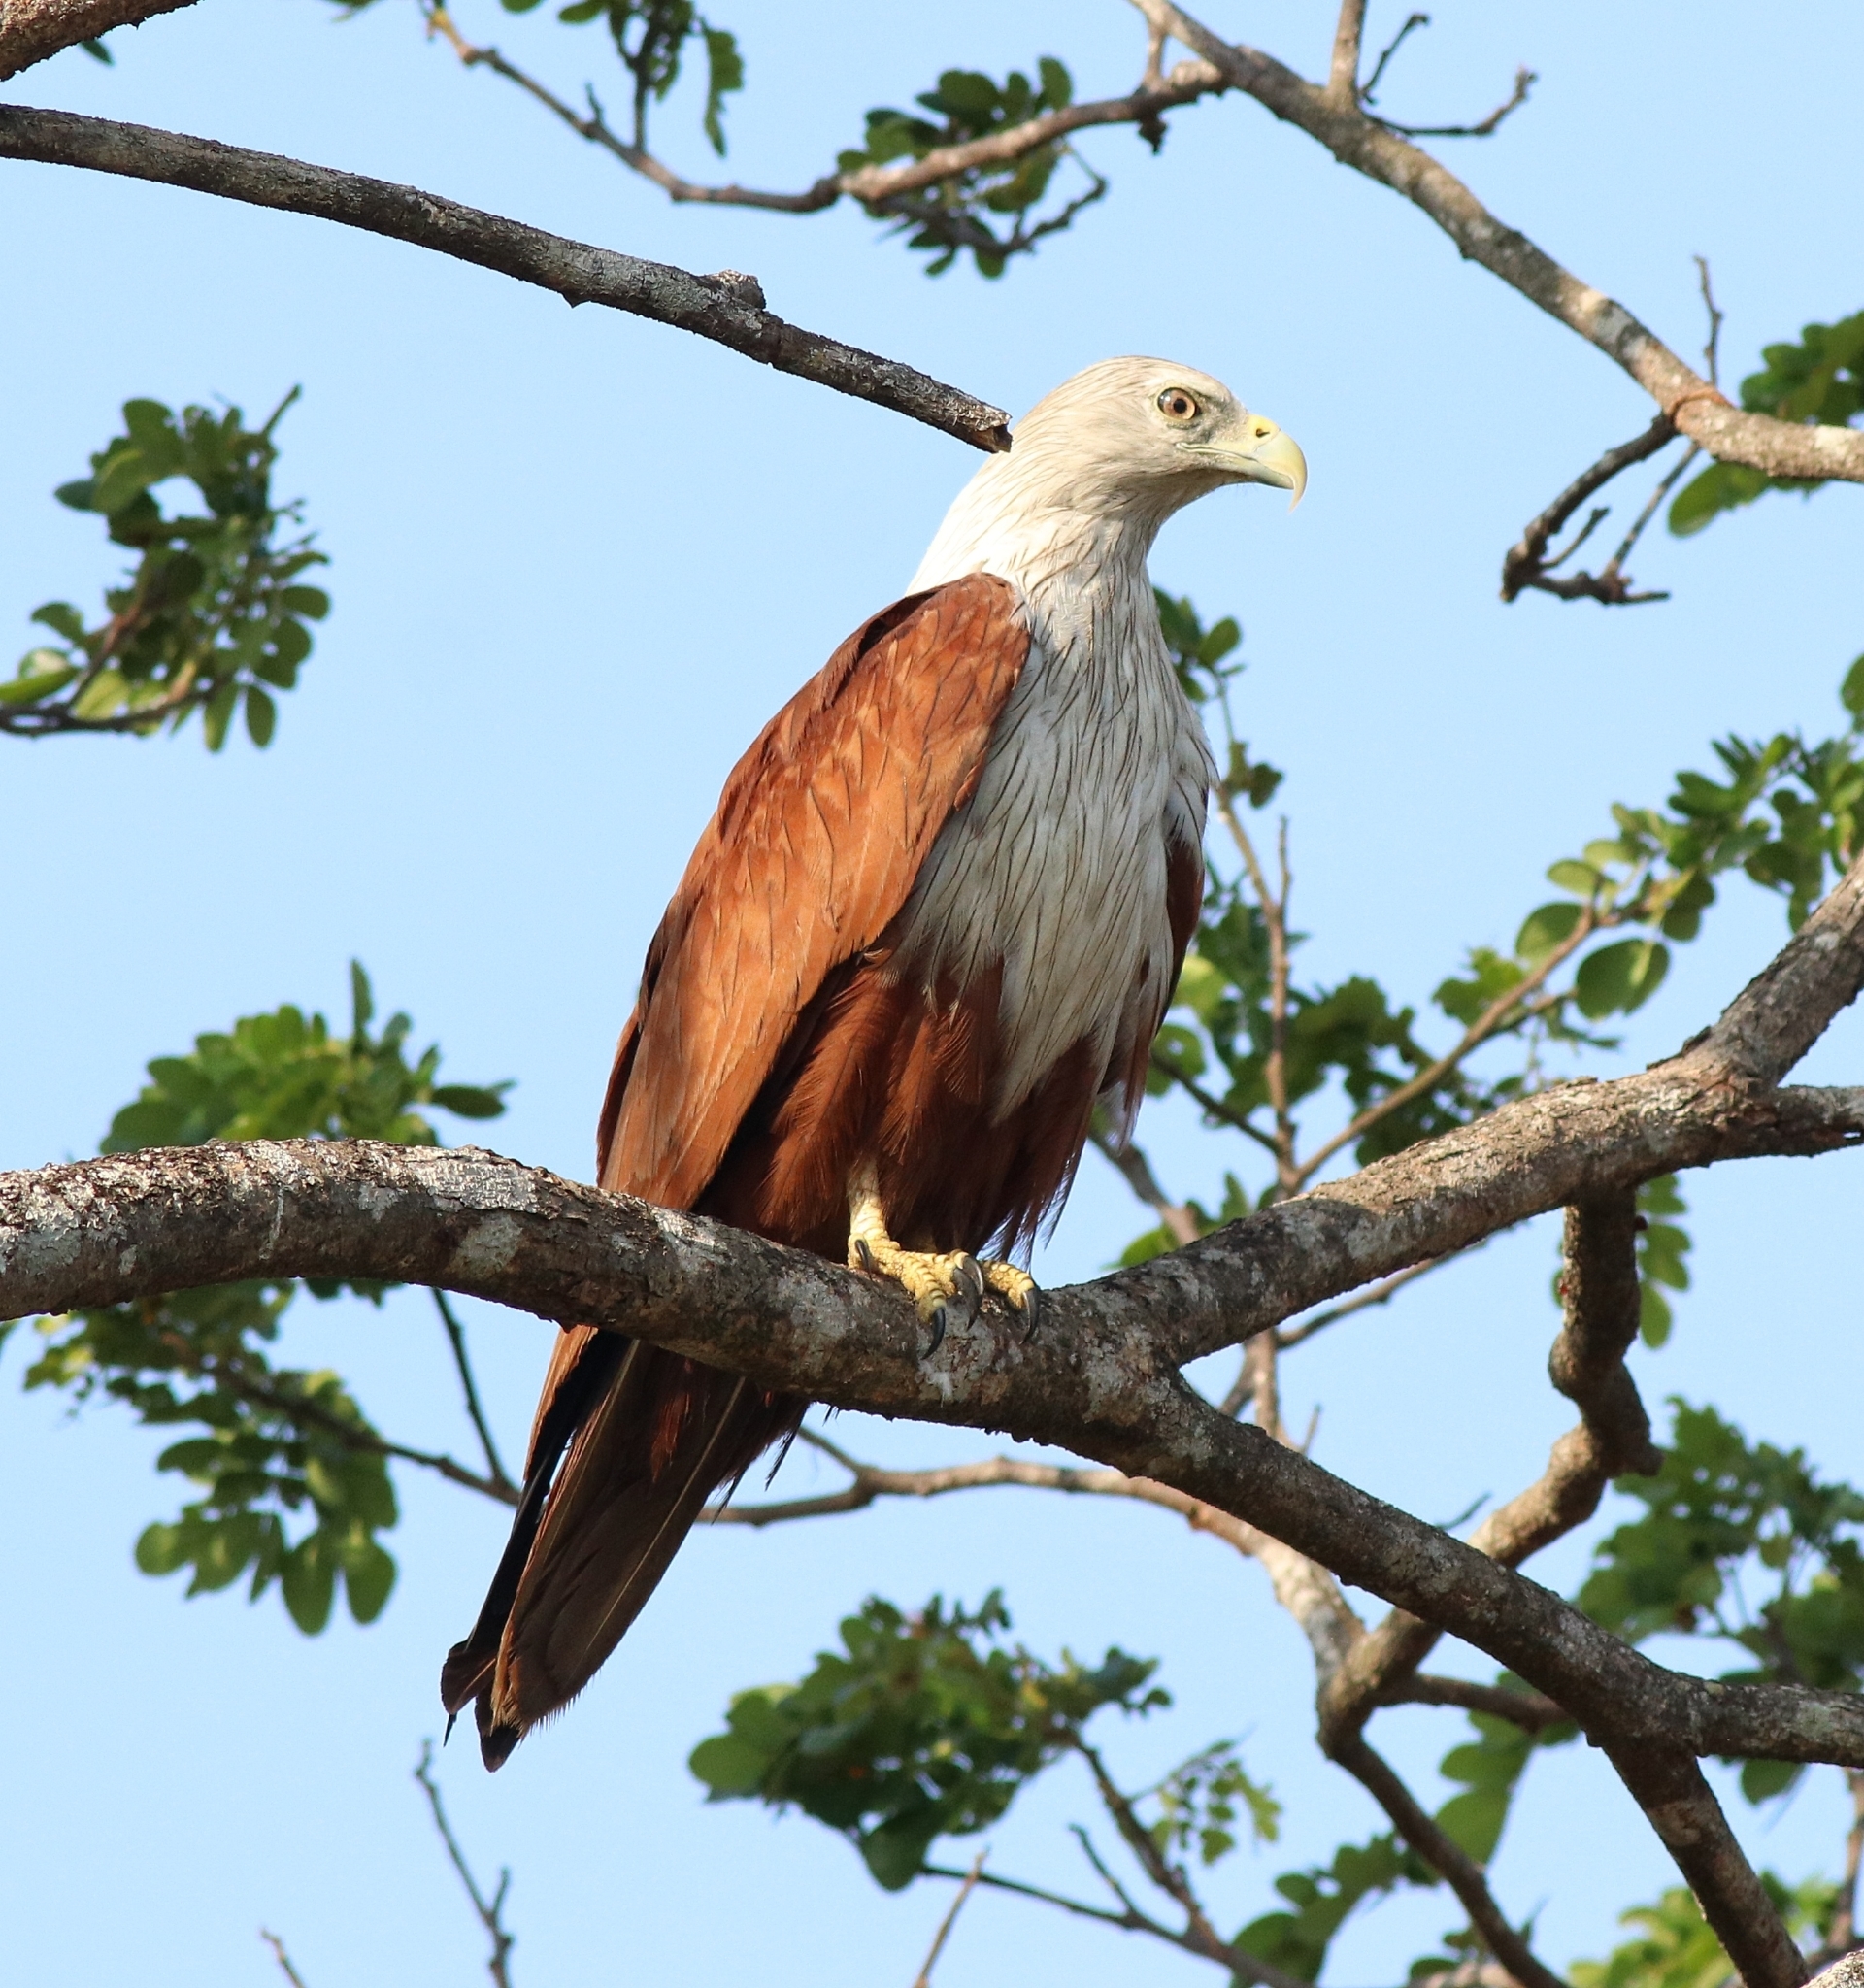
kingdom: Animalia
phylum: Chordata
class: Aves
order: Accipitriformes
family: Accipitridae
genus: Haliastur
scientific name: Haliastur indus
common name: Brahminy kite
